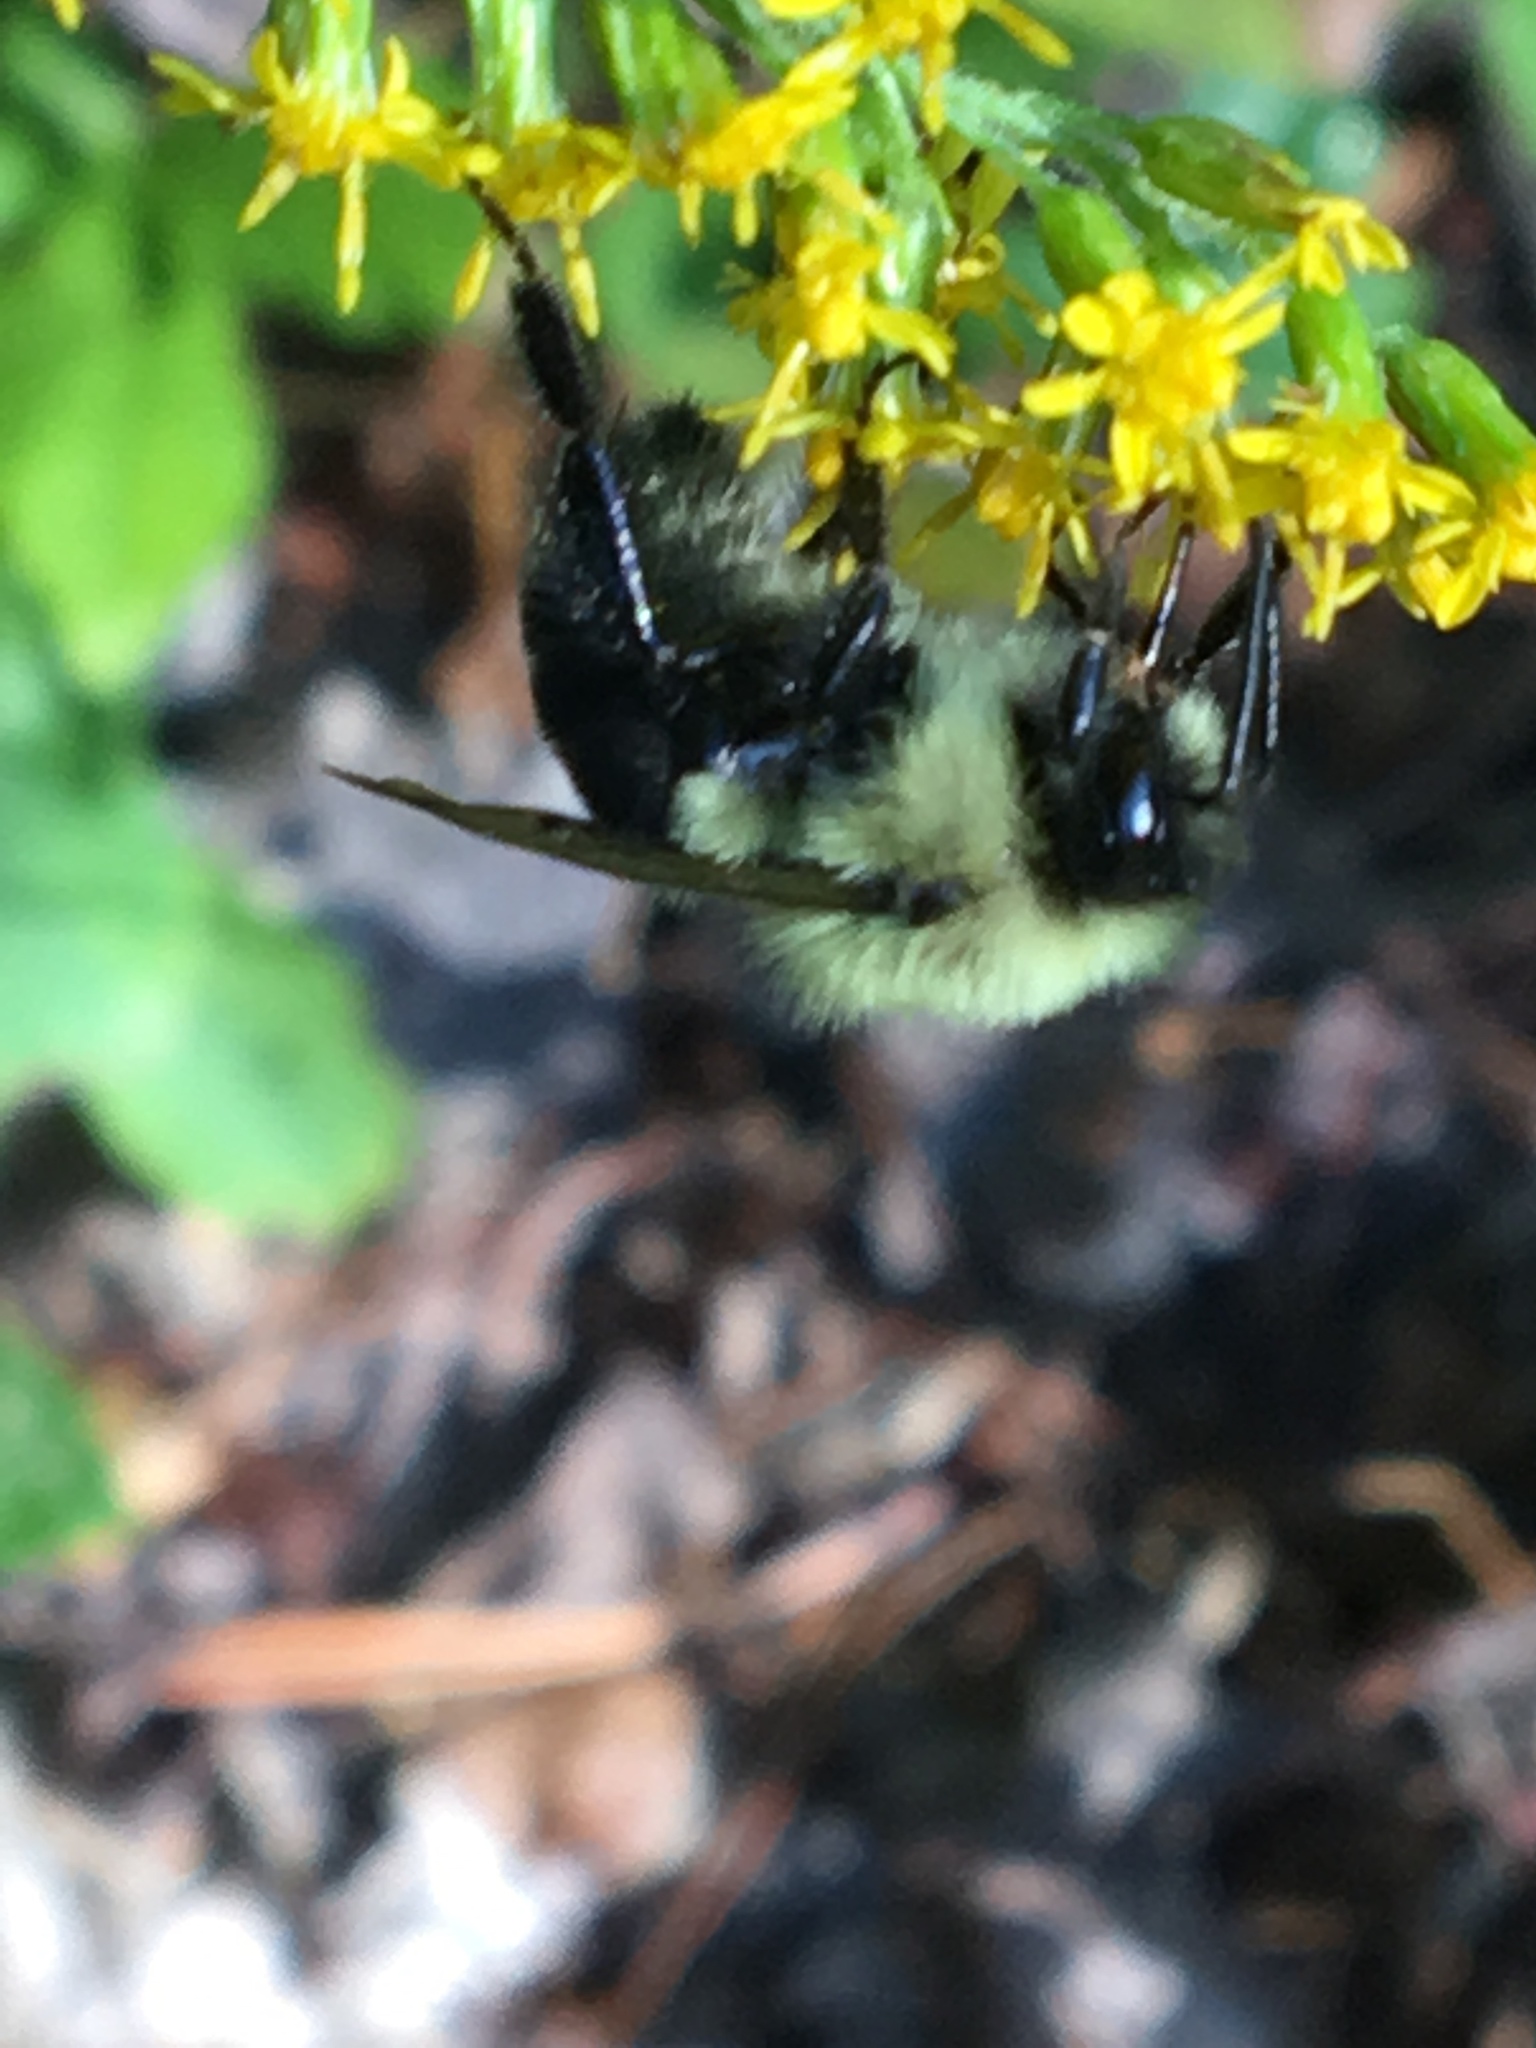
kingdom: Animalia
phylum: Arthropoda
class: Insecta
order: Hymenoptera
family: Apidae
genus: Bombus
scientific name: Bombus impatiens
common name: Common eastern bumble bee
